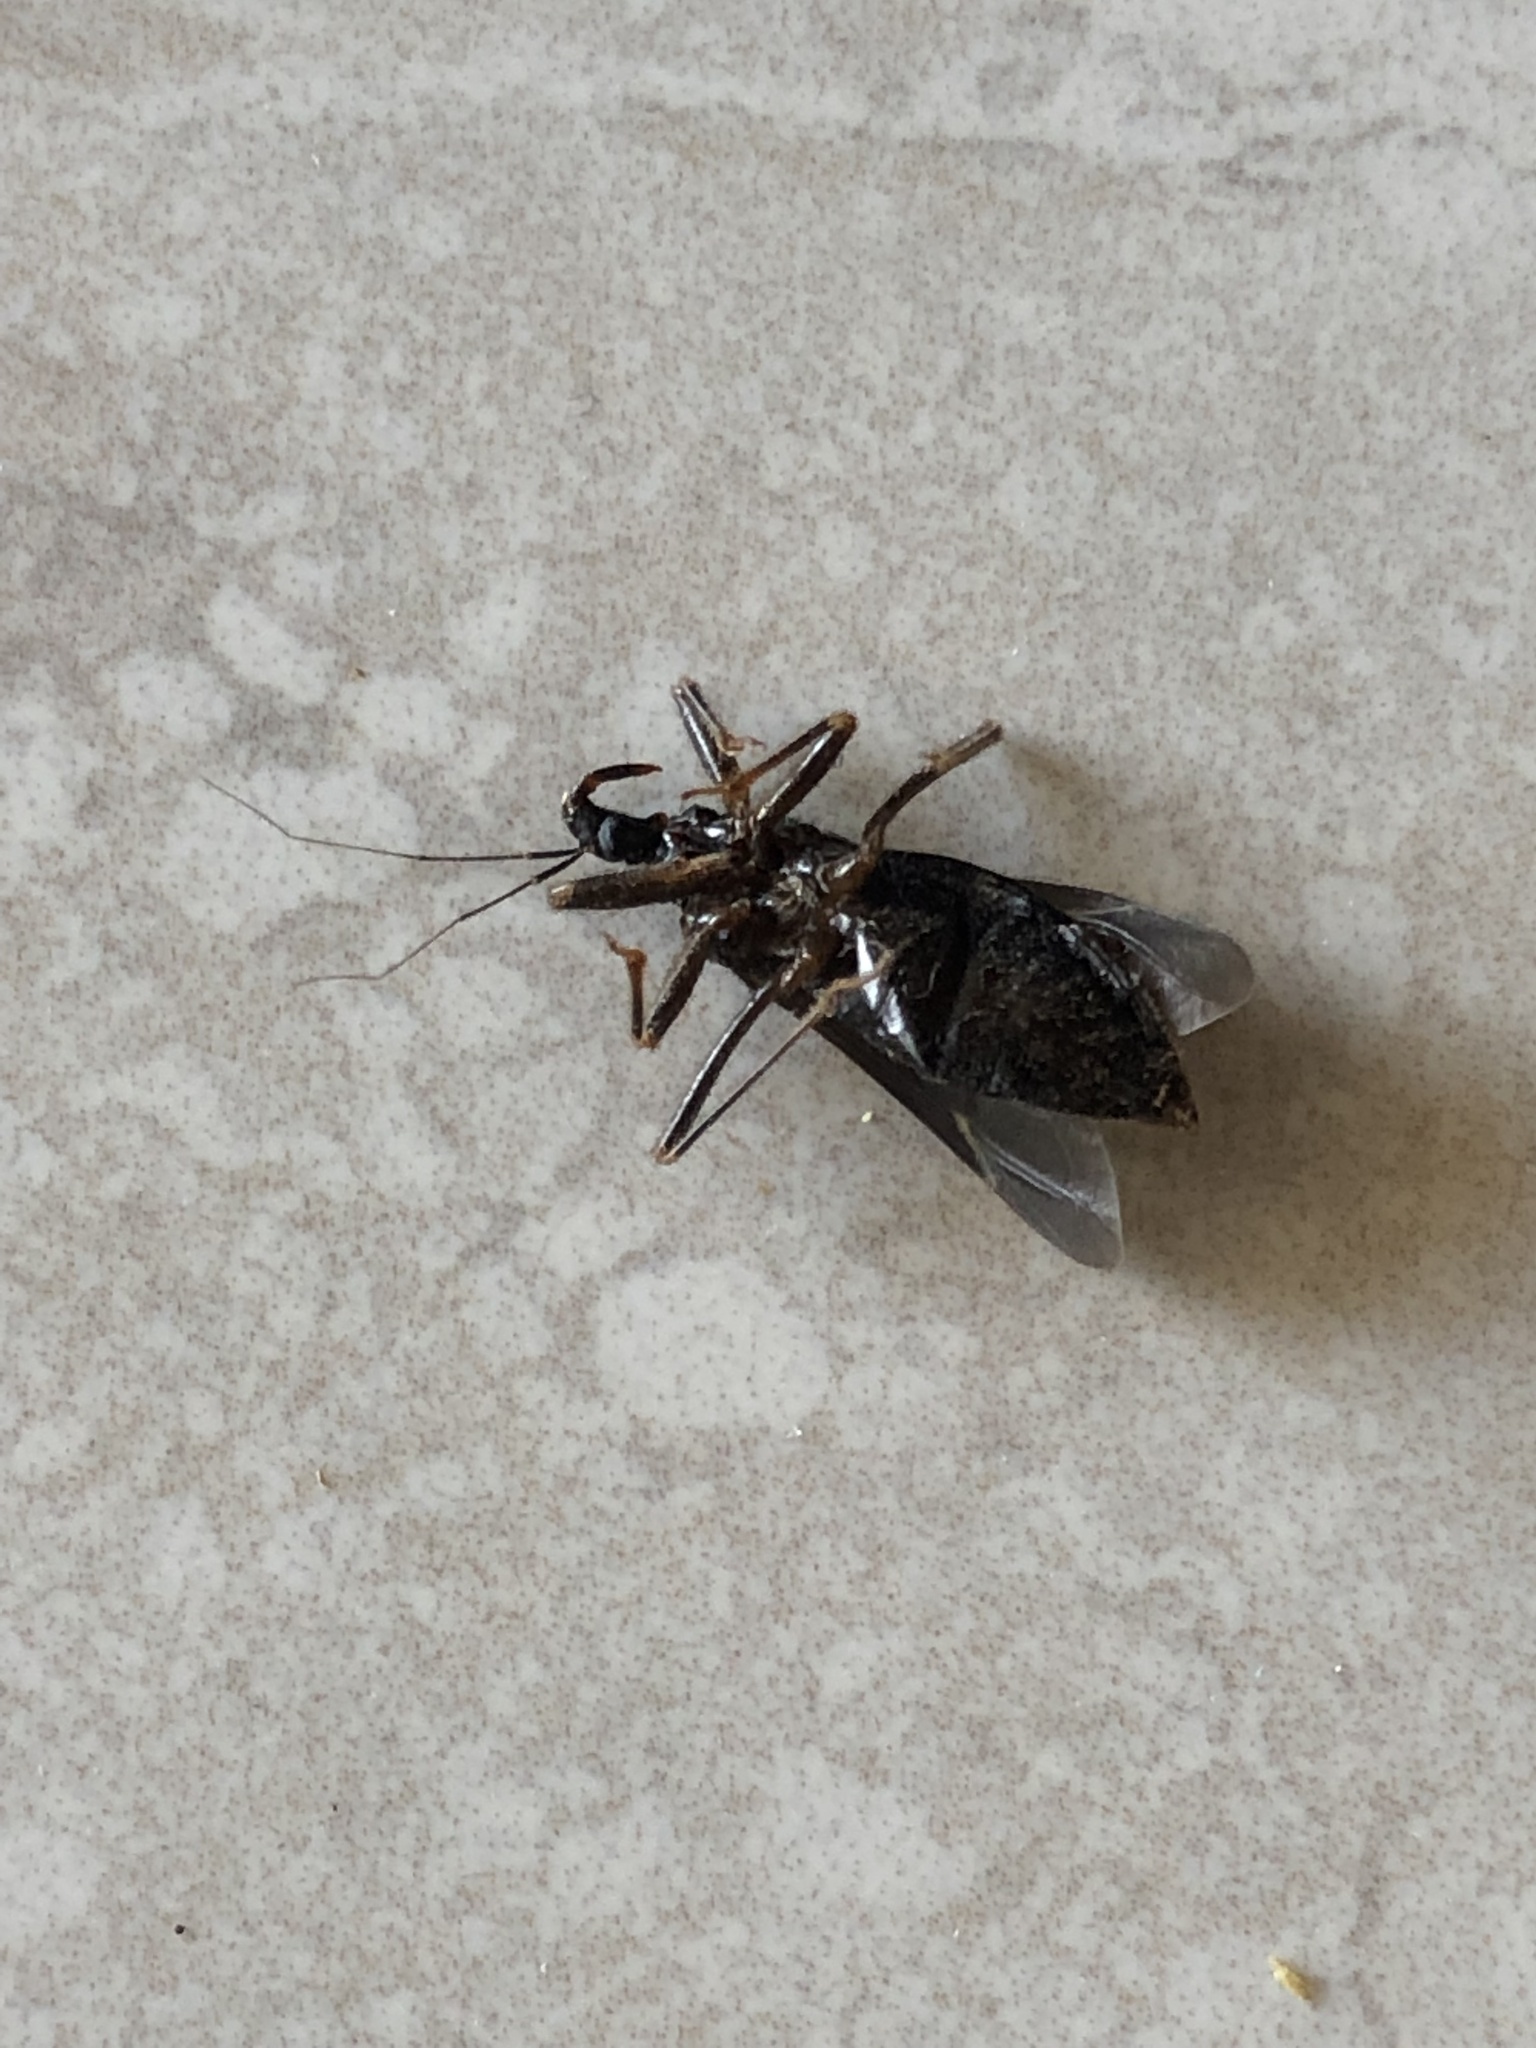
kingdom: Animalia
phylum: Arthropoda
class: Insecta
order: Hemiptera
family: Reduviidae
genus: Reduvius
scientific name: Reduvius personatus
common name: Masked hunter
